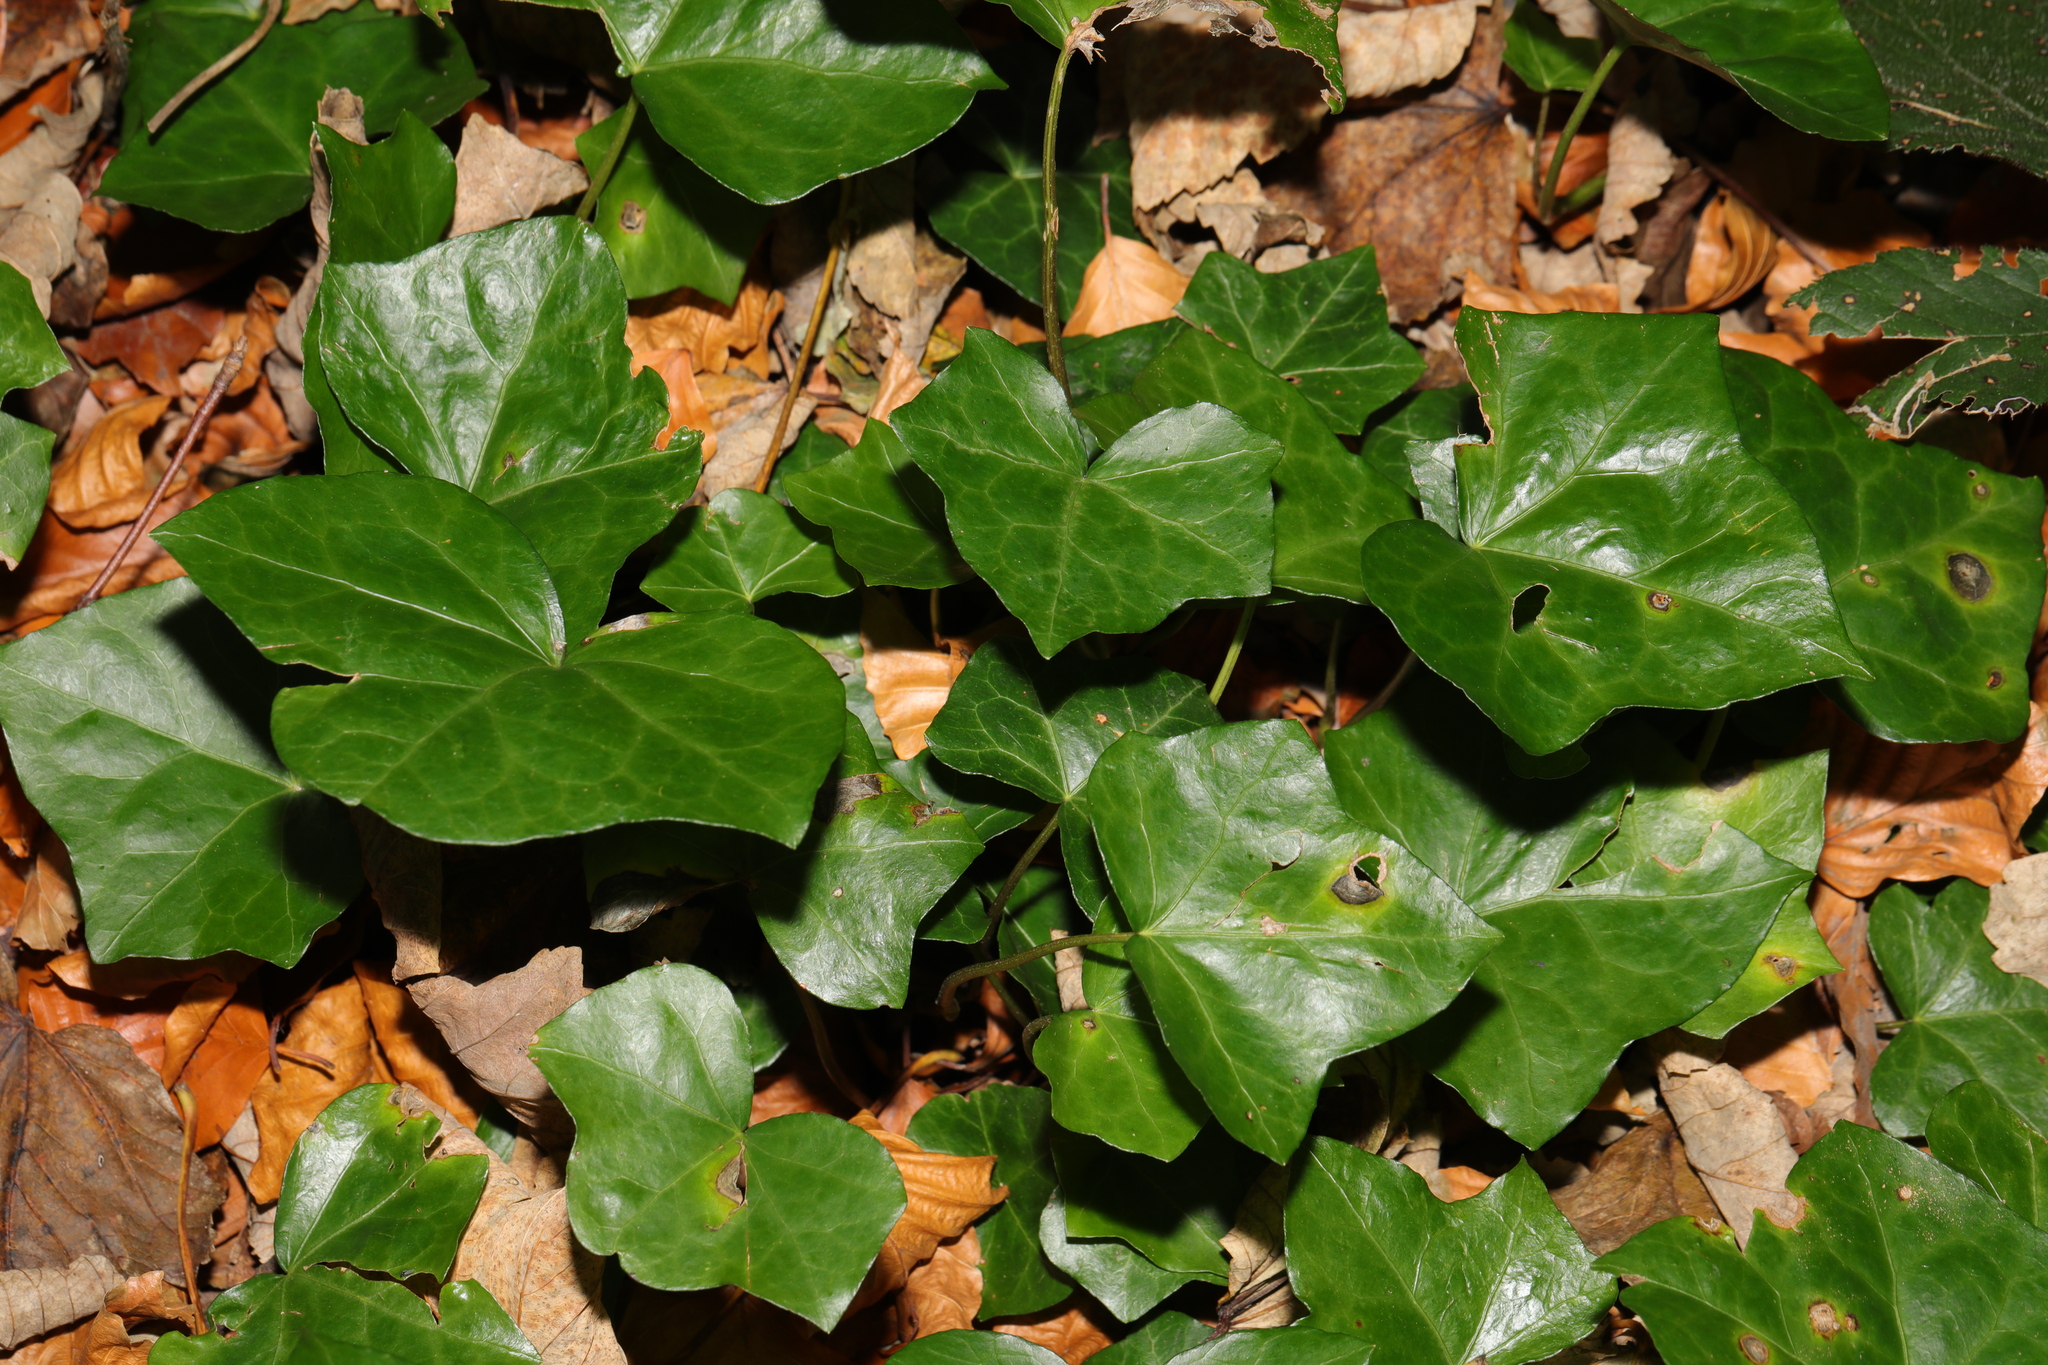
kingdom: Plantae
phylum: Tracheophyta
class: Magnoliopsida
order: Apiales
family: Araliaceae
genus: Hedera
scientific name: Hedera helix
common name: Ivy
